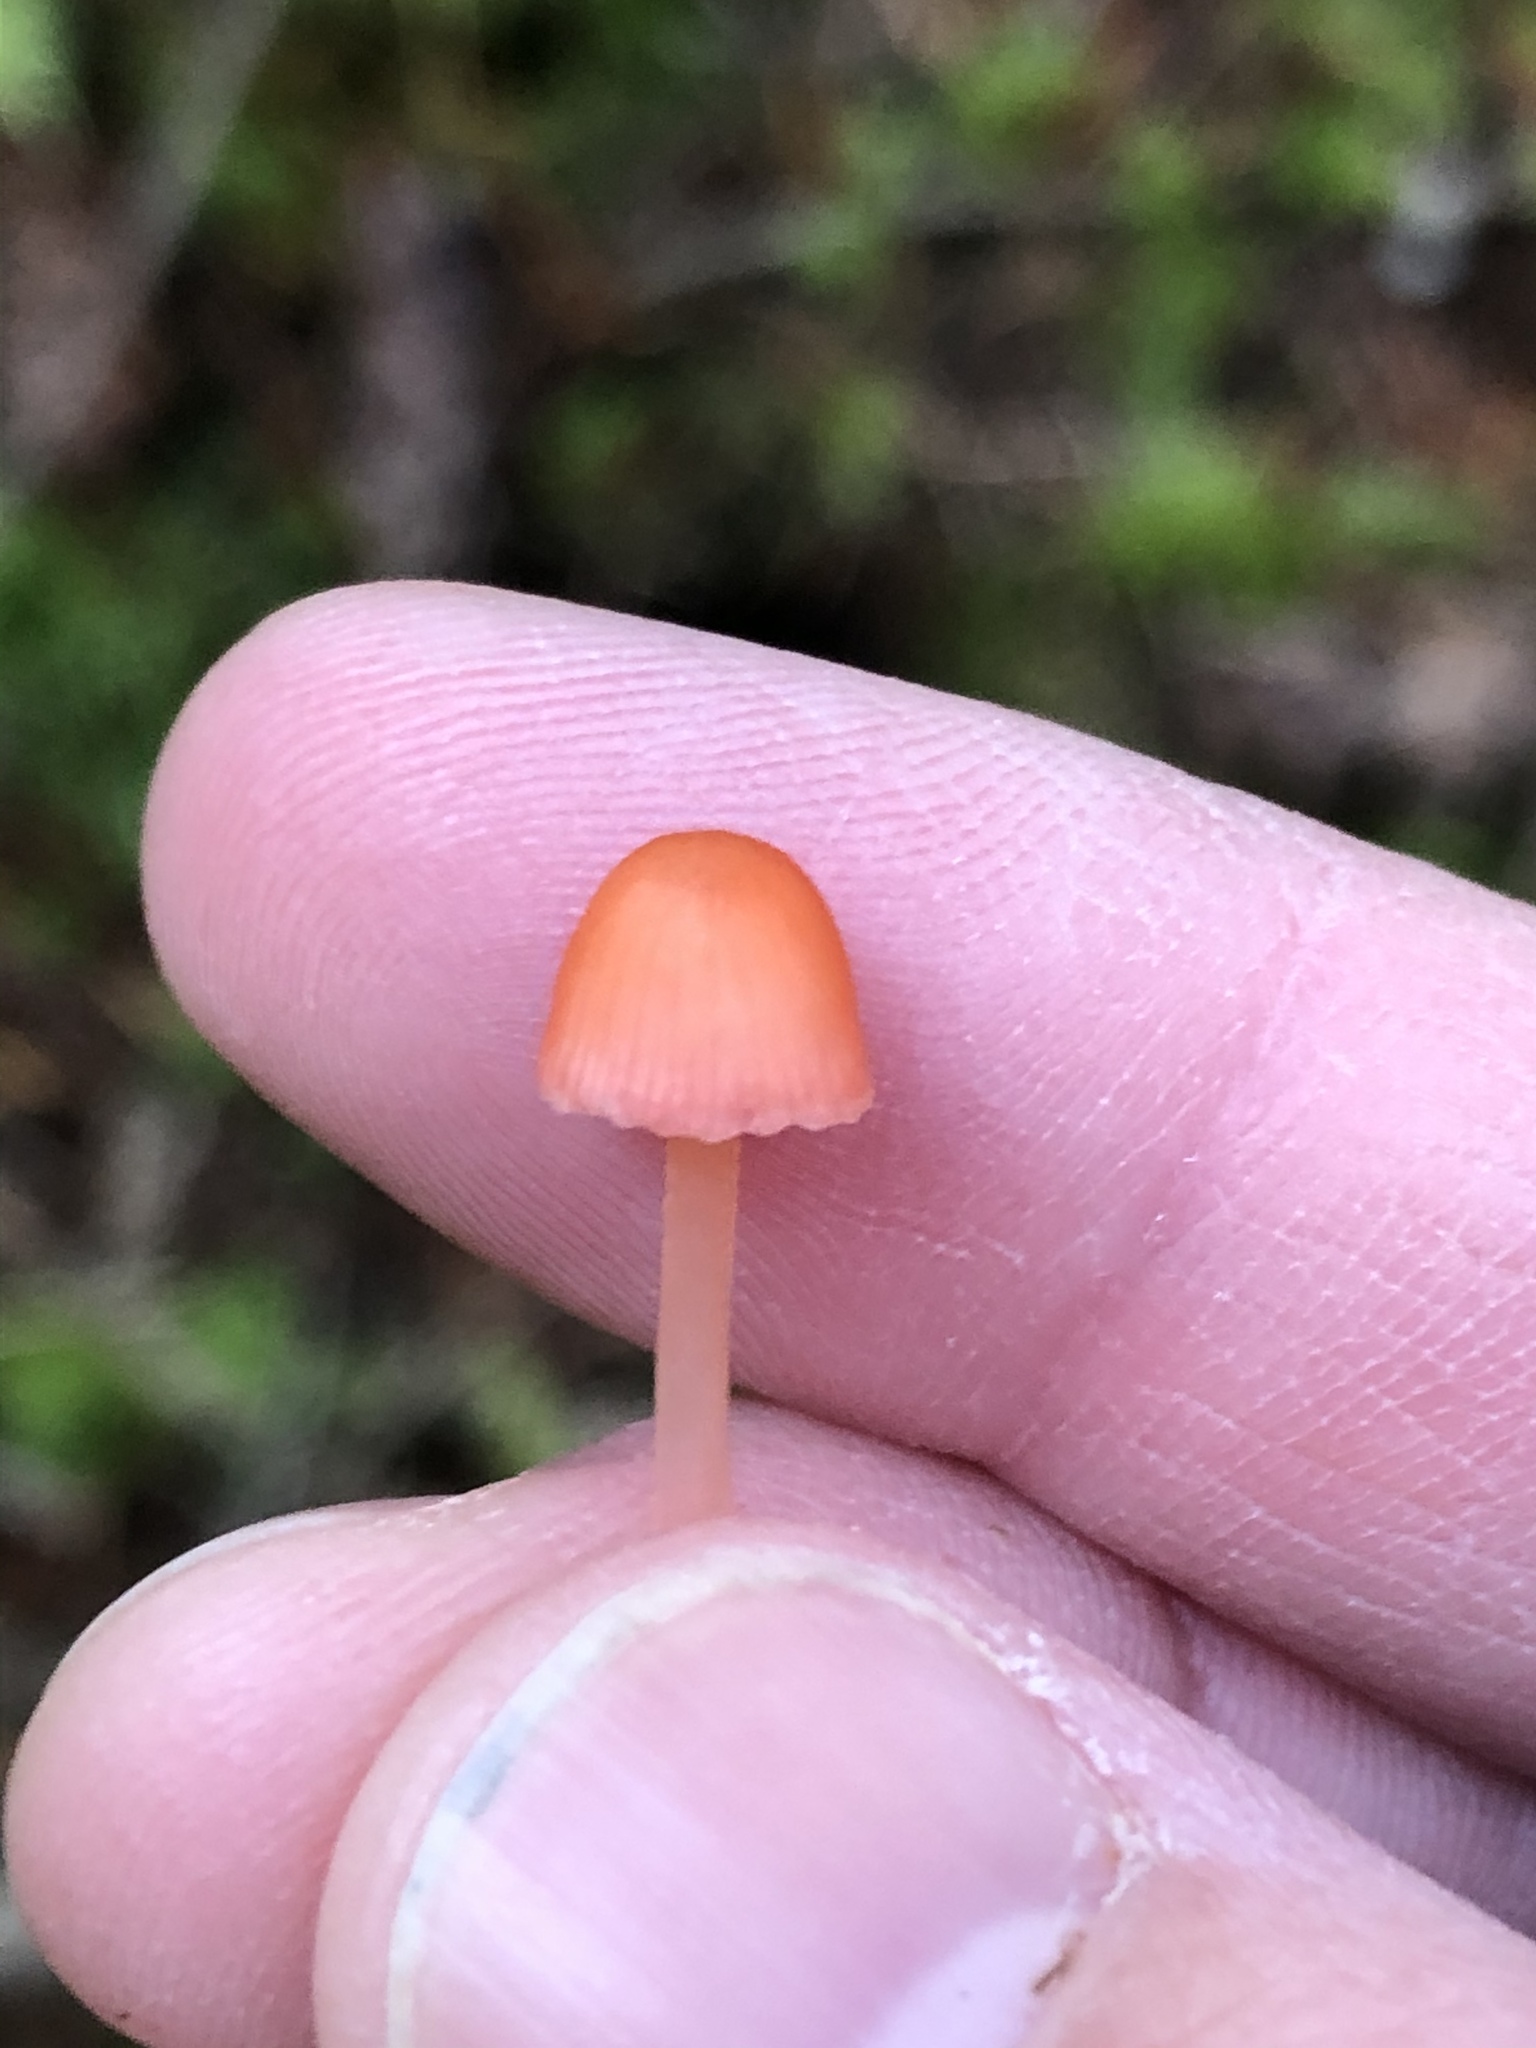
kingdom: Fungi
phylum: Basidiomycota
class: Agaricomycetes
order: Agaricales
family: Mycenaceae
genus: Atheniella
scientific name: Atheniella adonis
